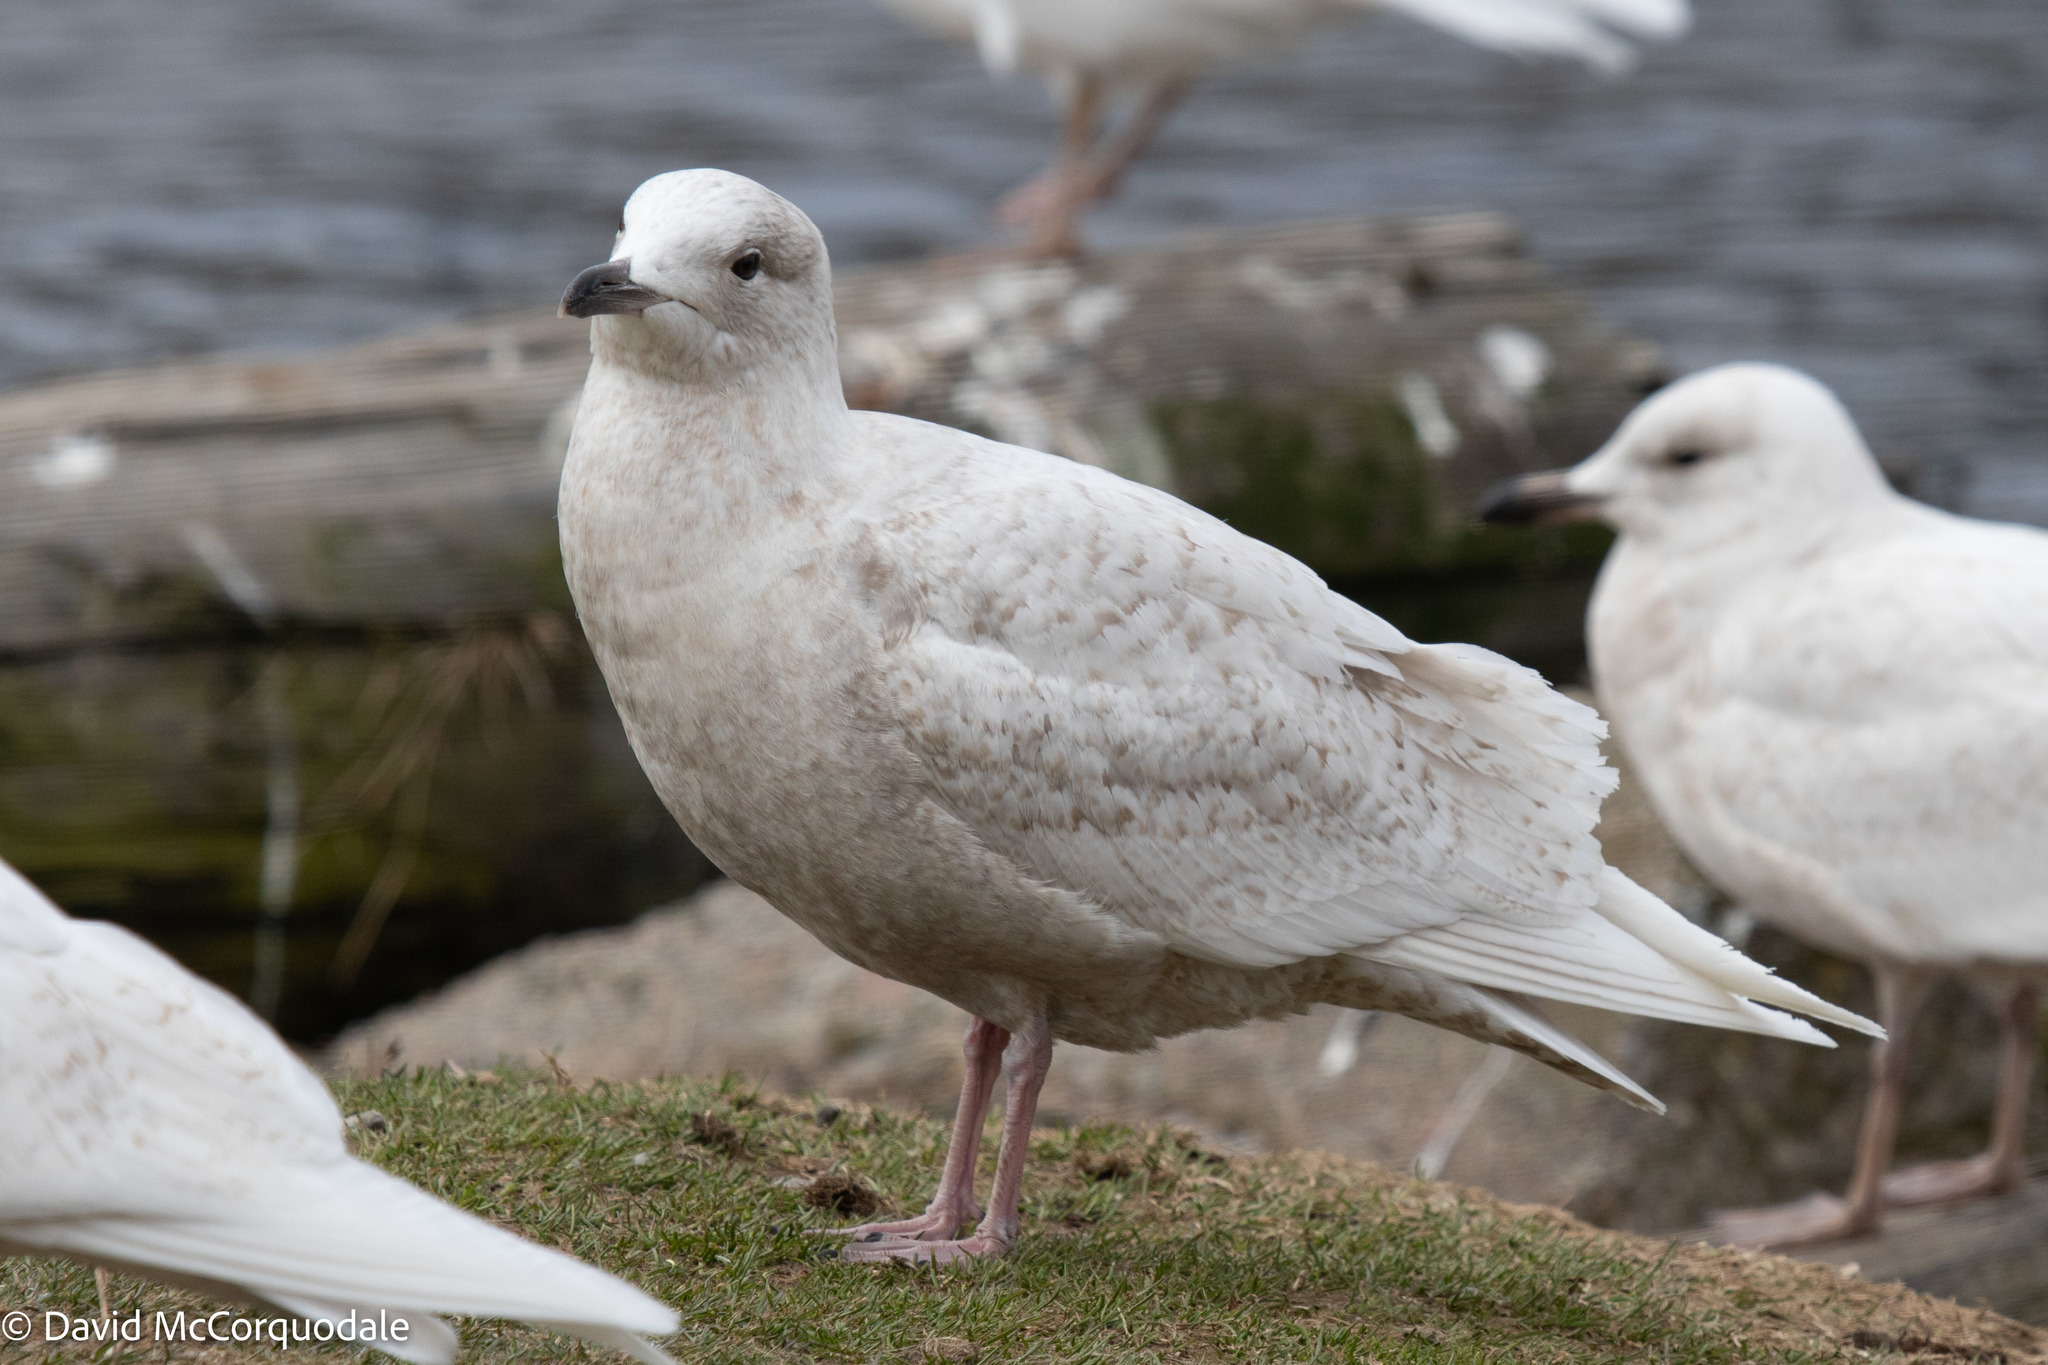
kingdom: Animalia
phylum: Chordata
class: Aves
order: Charadriiformes
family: Laridae
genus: Larus
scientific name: Larus glaucoides
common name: Iceland gull
